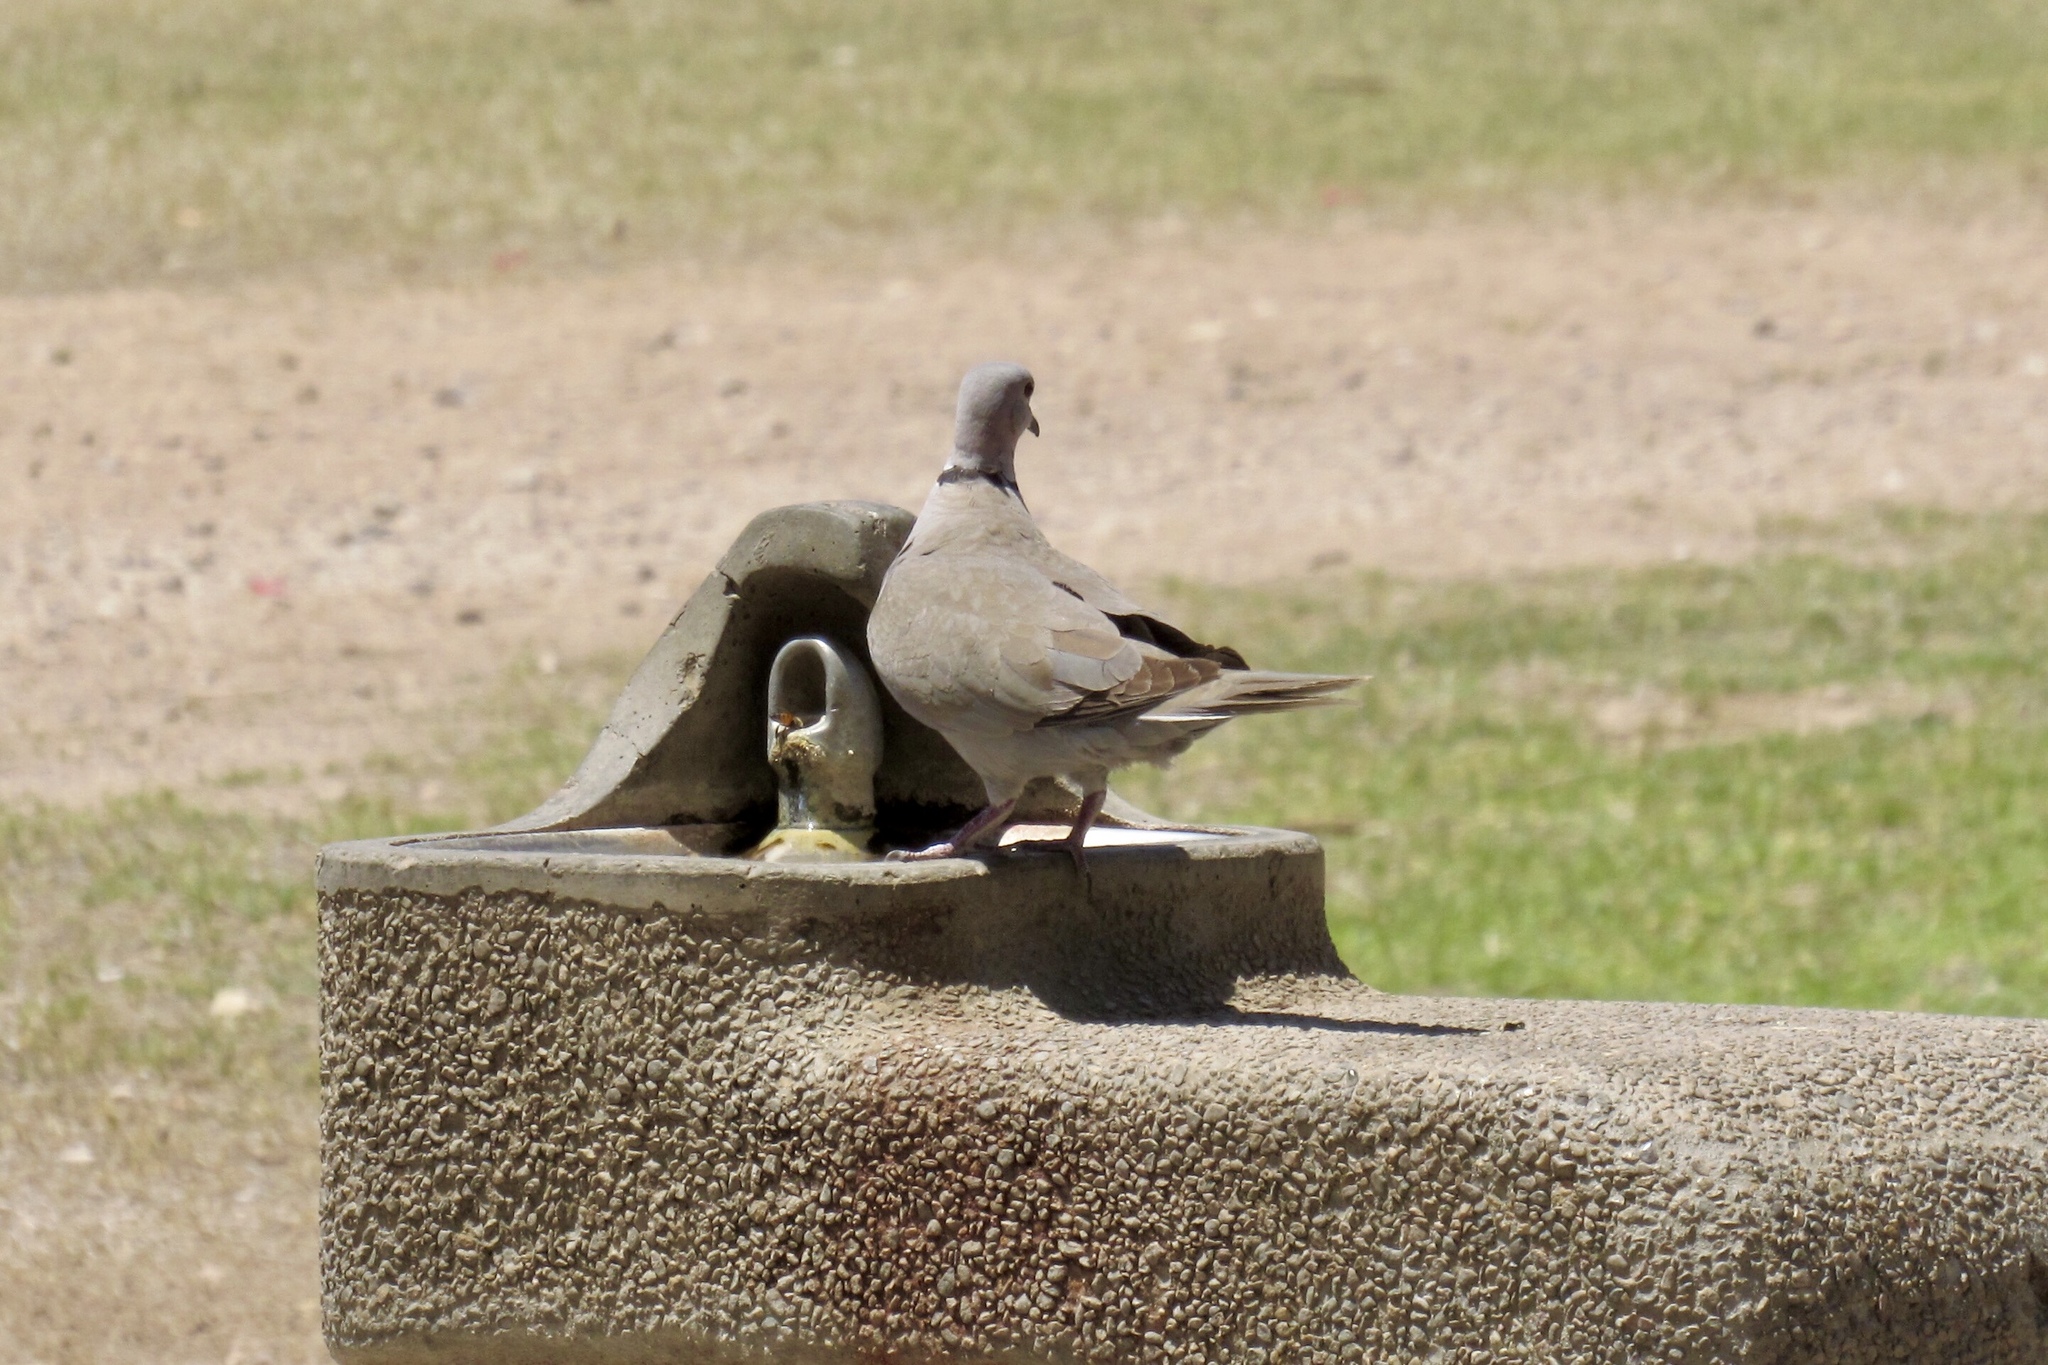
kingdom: Animalia
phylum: Chordata
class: Aves
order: Columbiformes
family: Columbidae
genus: Streptopelia
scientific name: Streptopelia decaocto
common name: Eurasian collared dove
